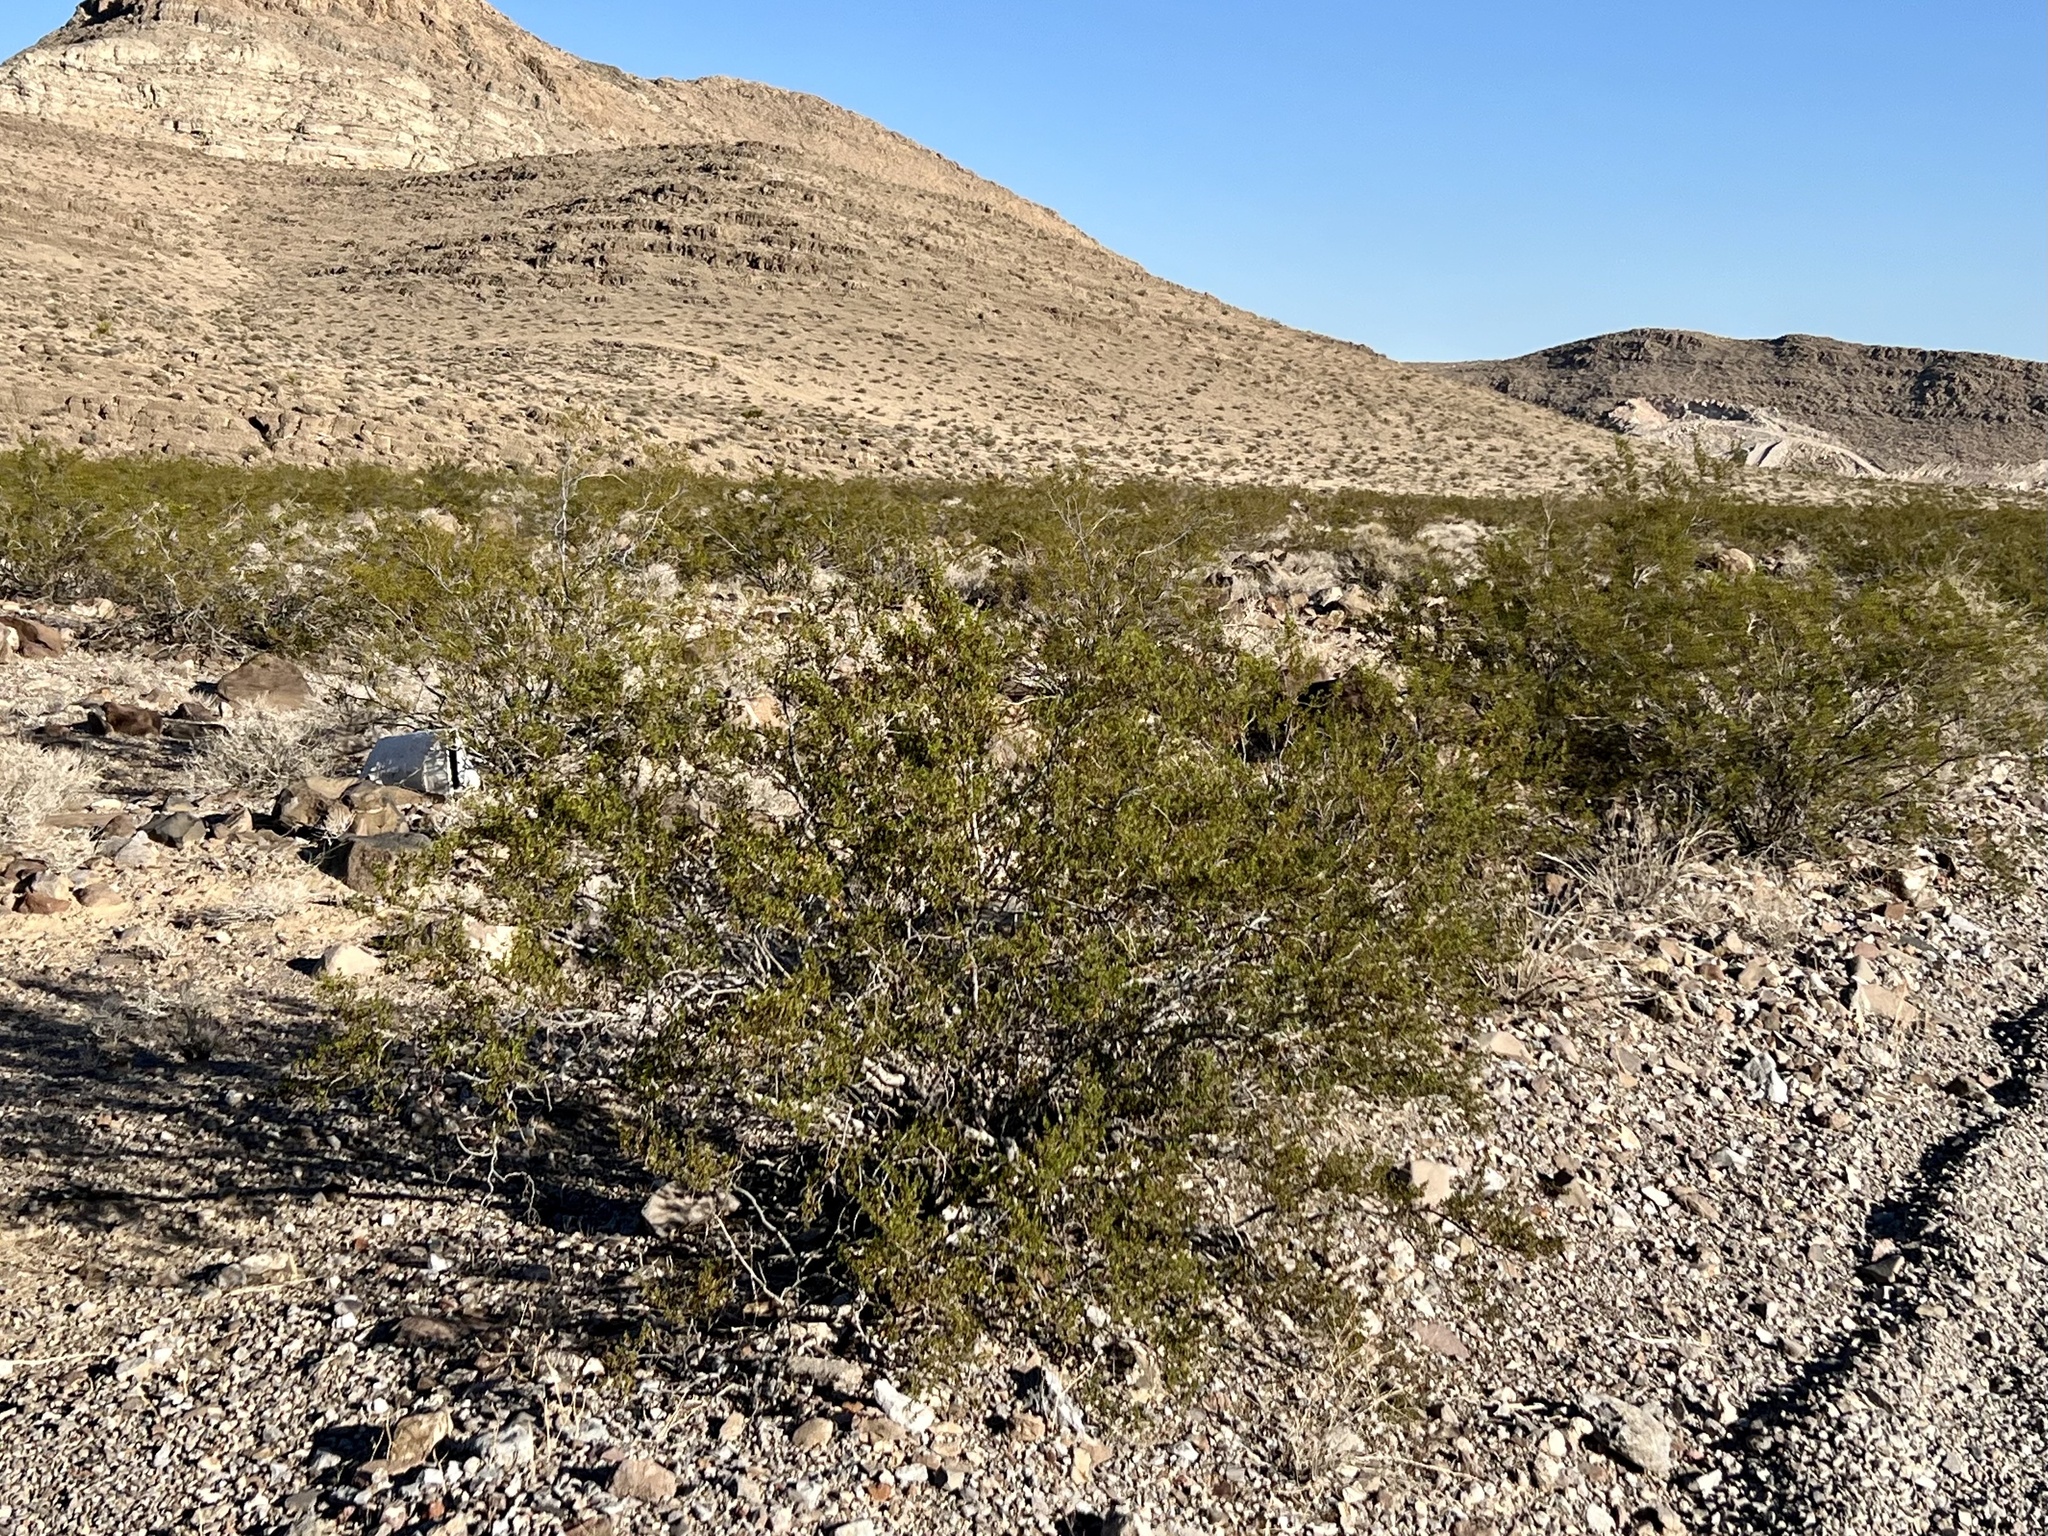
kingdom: Plantae
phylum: Tracheophyta
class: Magnoliopsida
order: Zygophyllales
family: Zygophyllaceae
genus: Larrea
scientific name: Larrea tridentata
